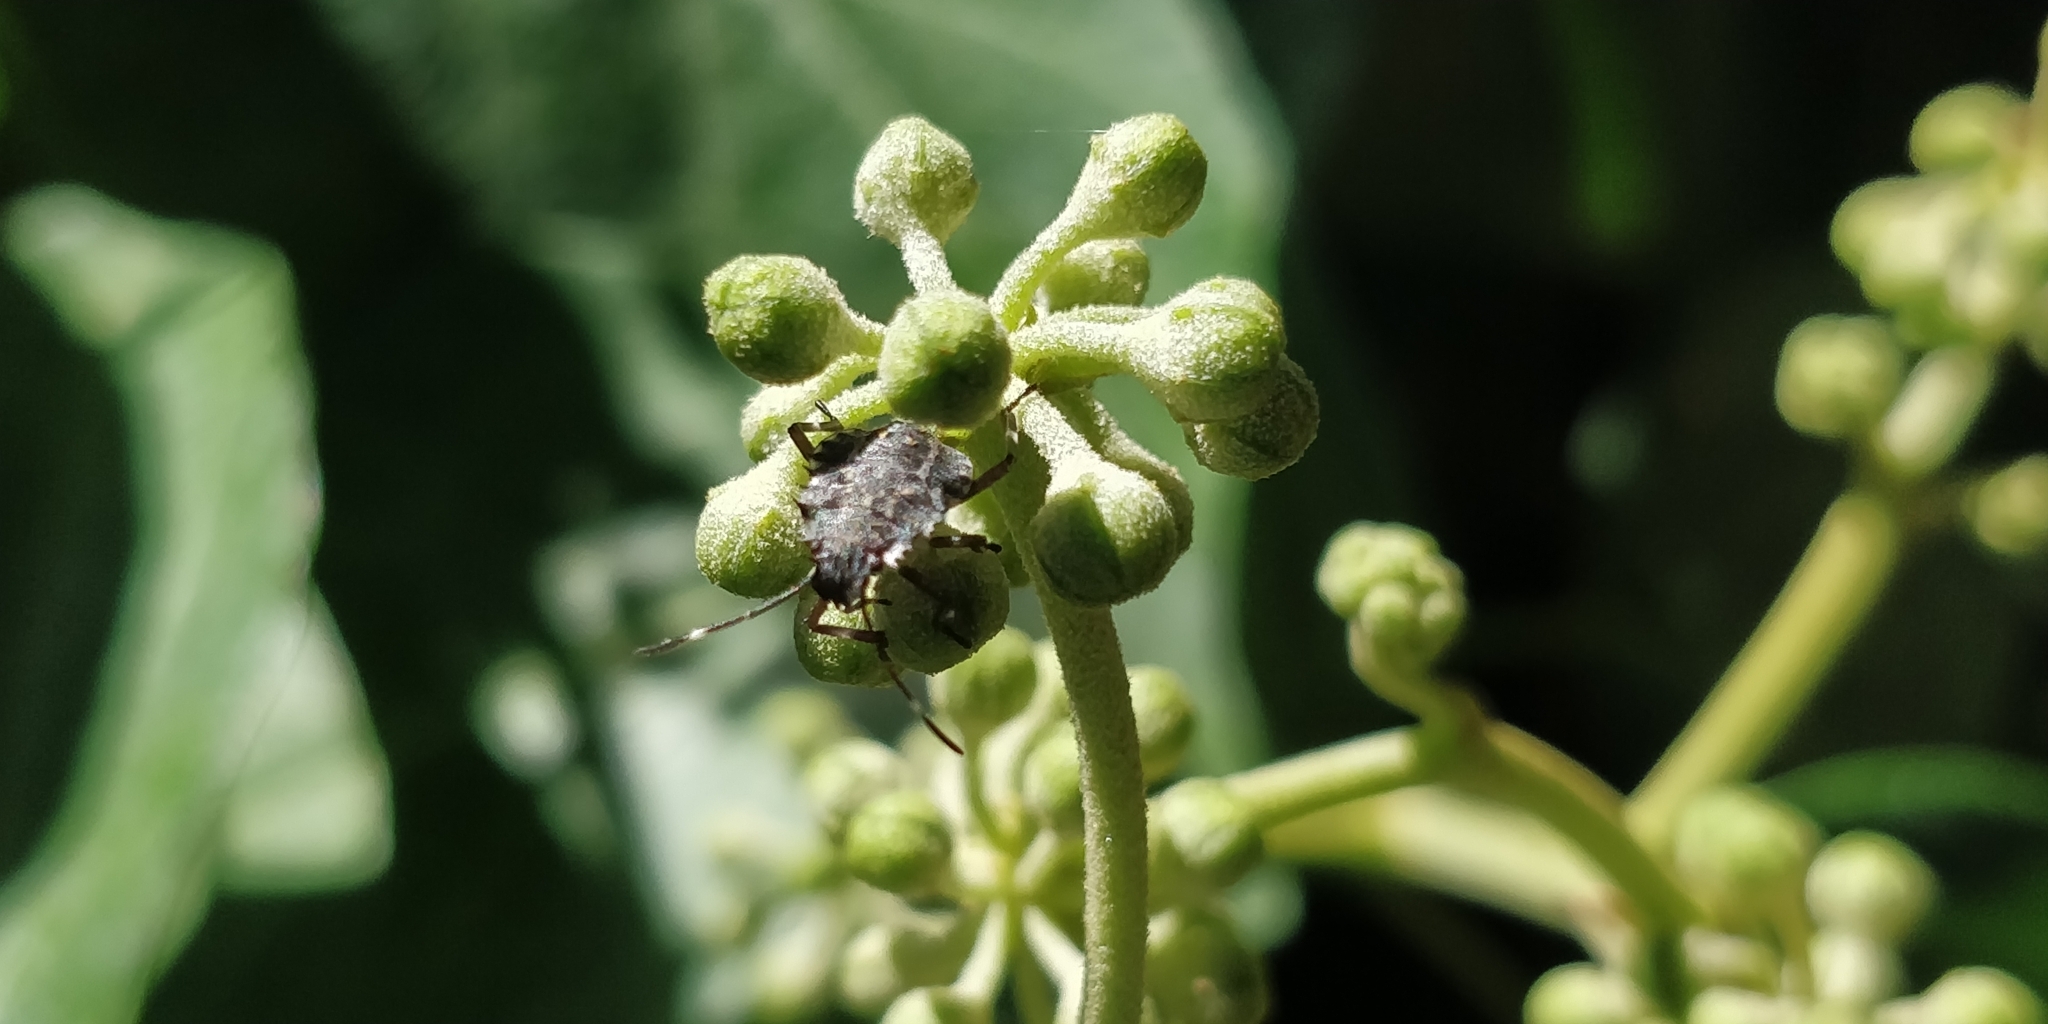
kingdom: Animalia
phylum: Arthropoda
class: Insecta
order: Hemiptera
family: Pentatomidae
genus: Halyomorpha
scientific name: Halyomorpha halys
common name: Brown marmorated stink bug
